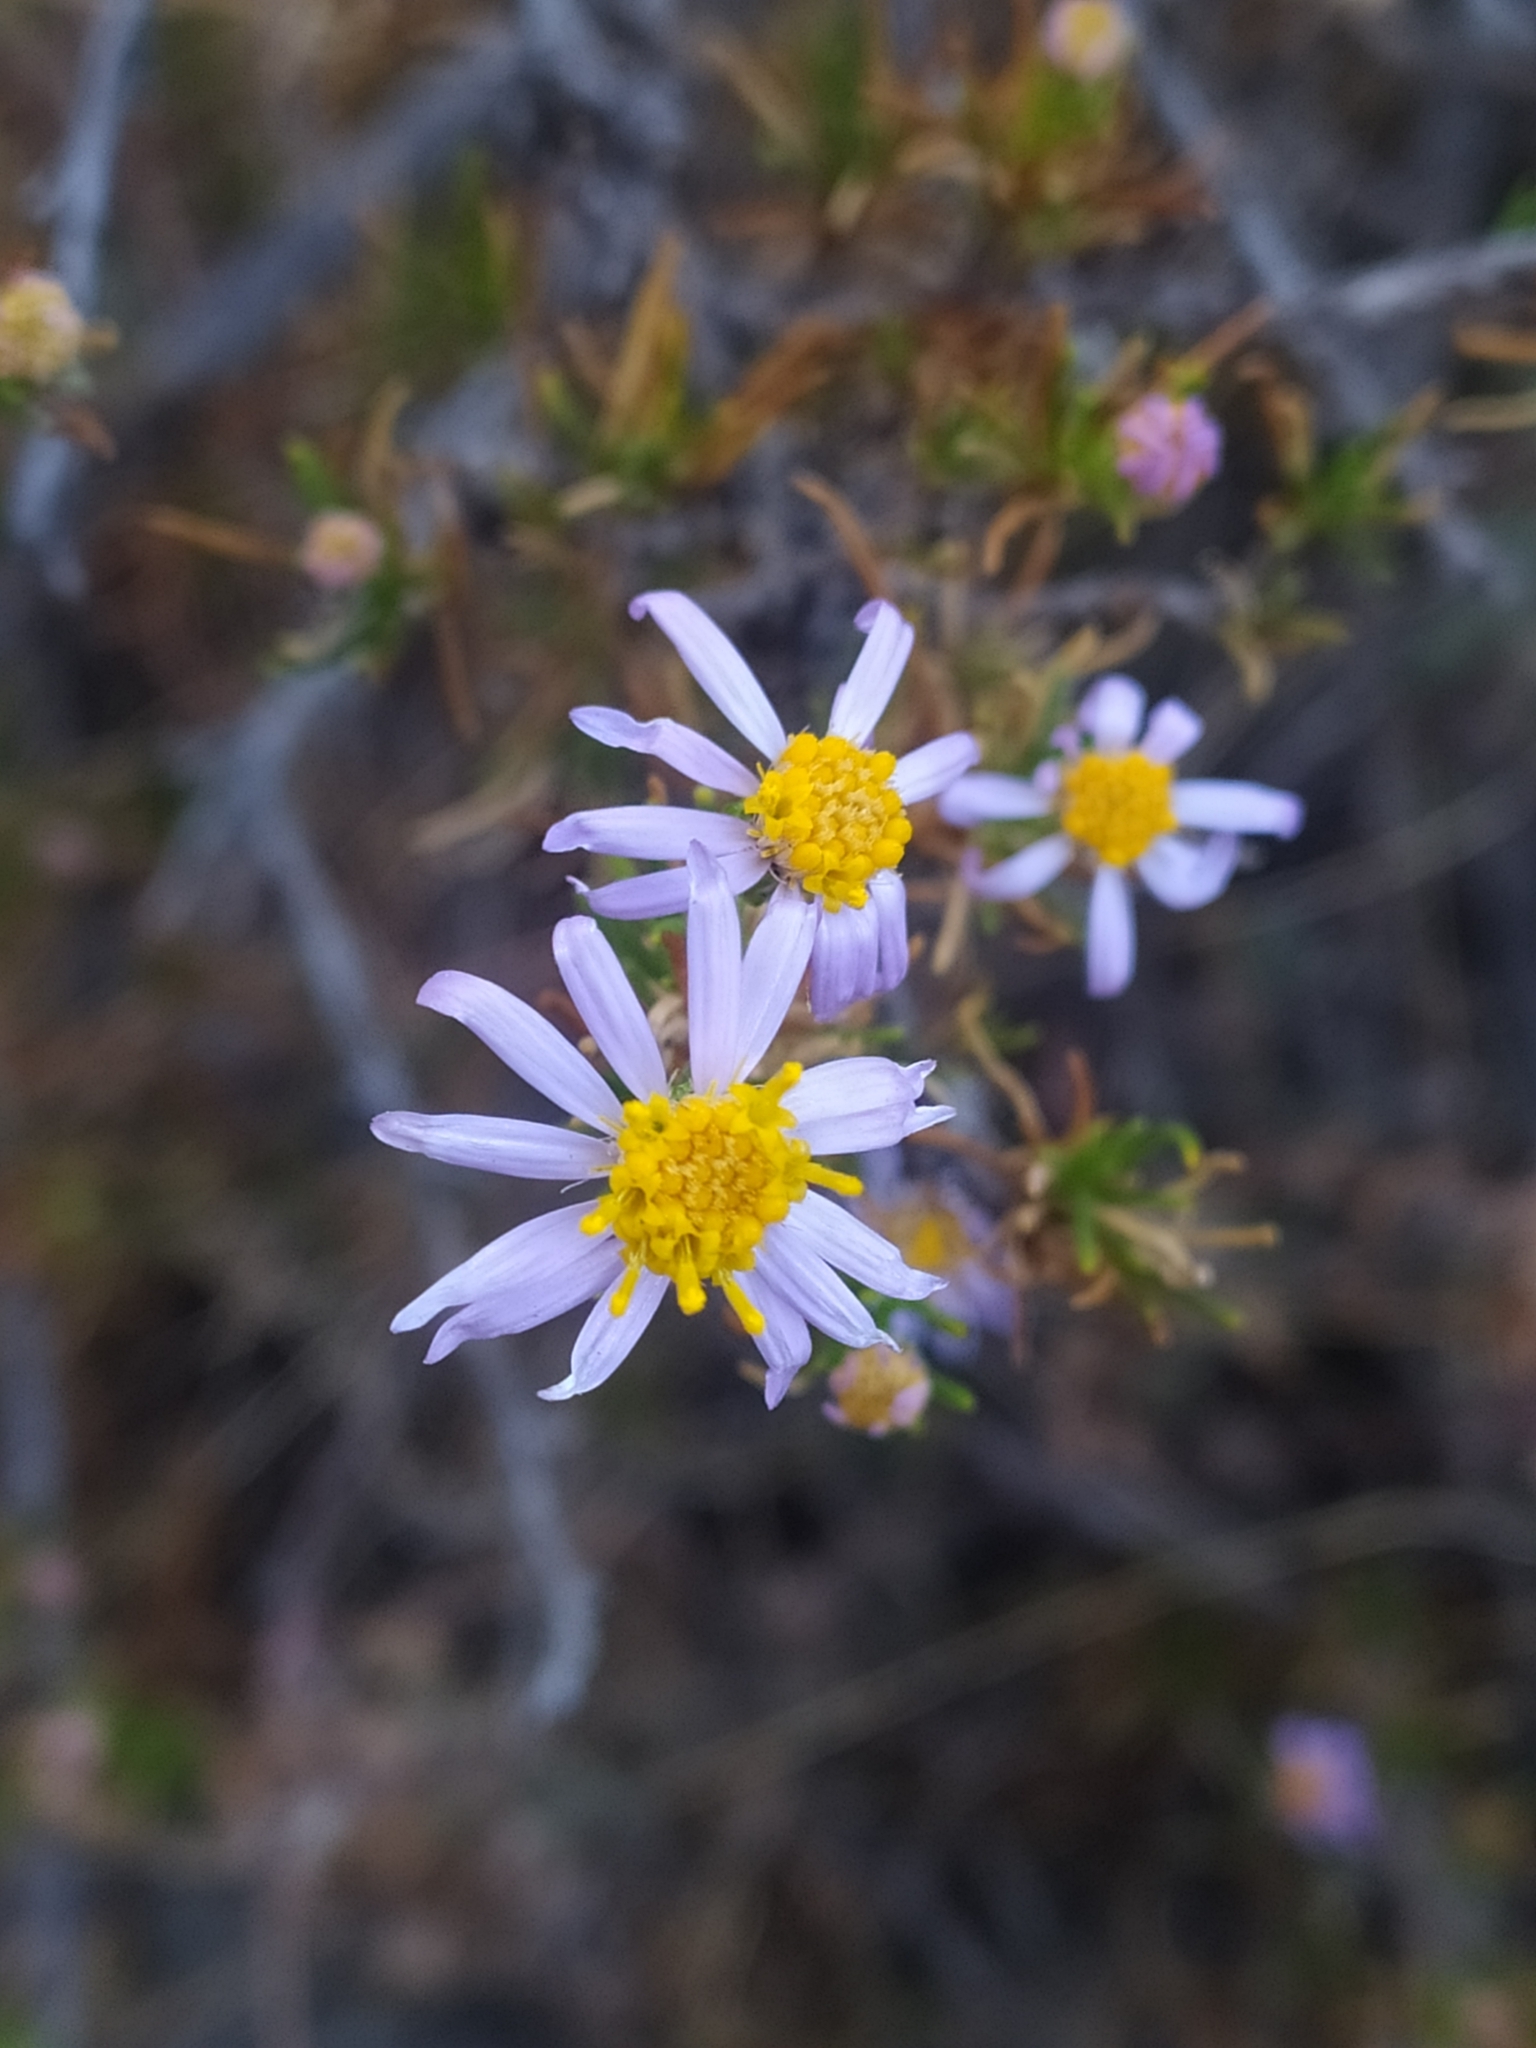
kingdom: Plantae
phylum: Tracheophyta
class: Magnoliopsida
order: Asterales
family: Asteraceae
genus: Felicia
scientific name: Felicia filifolia
